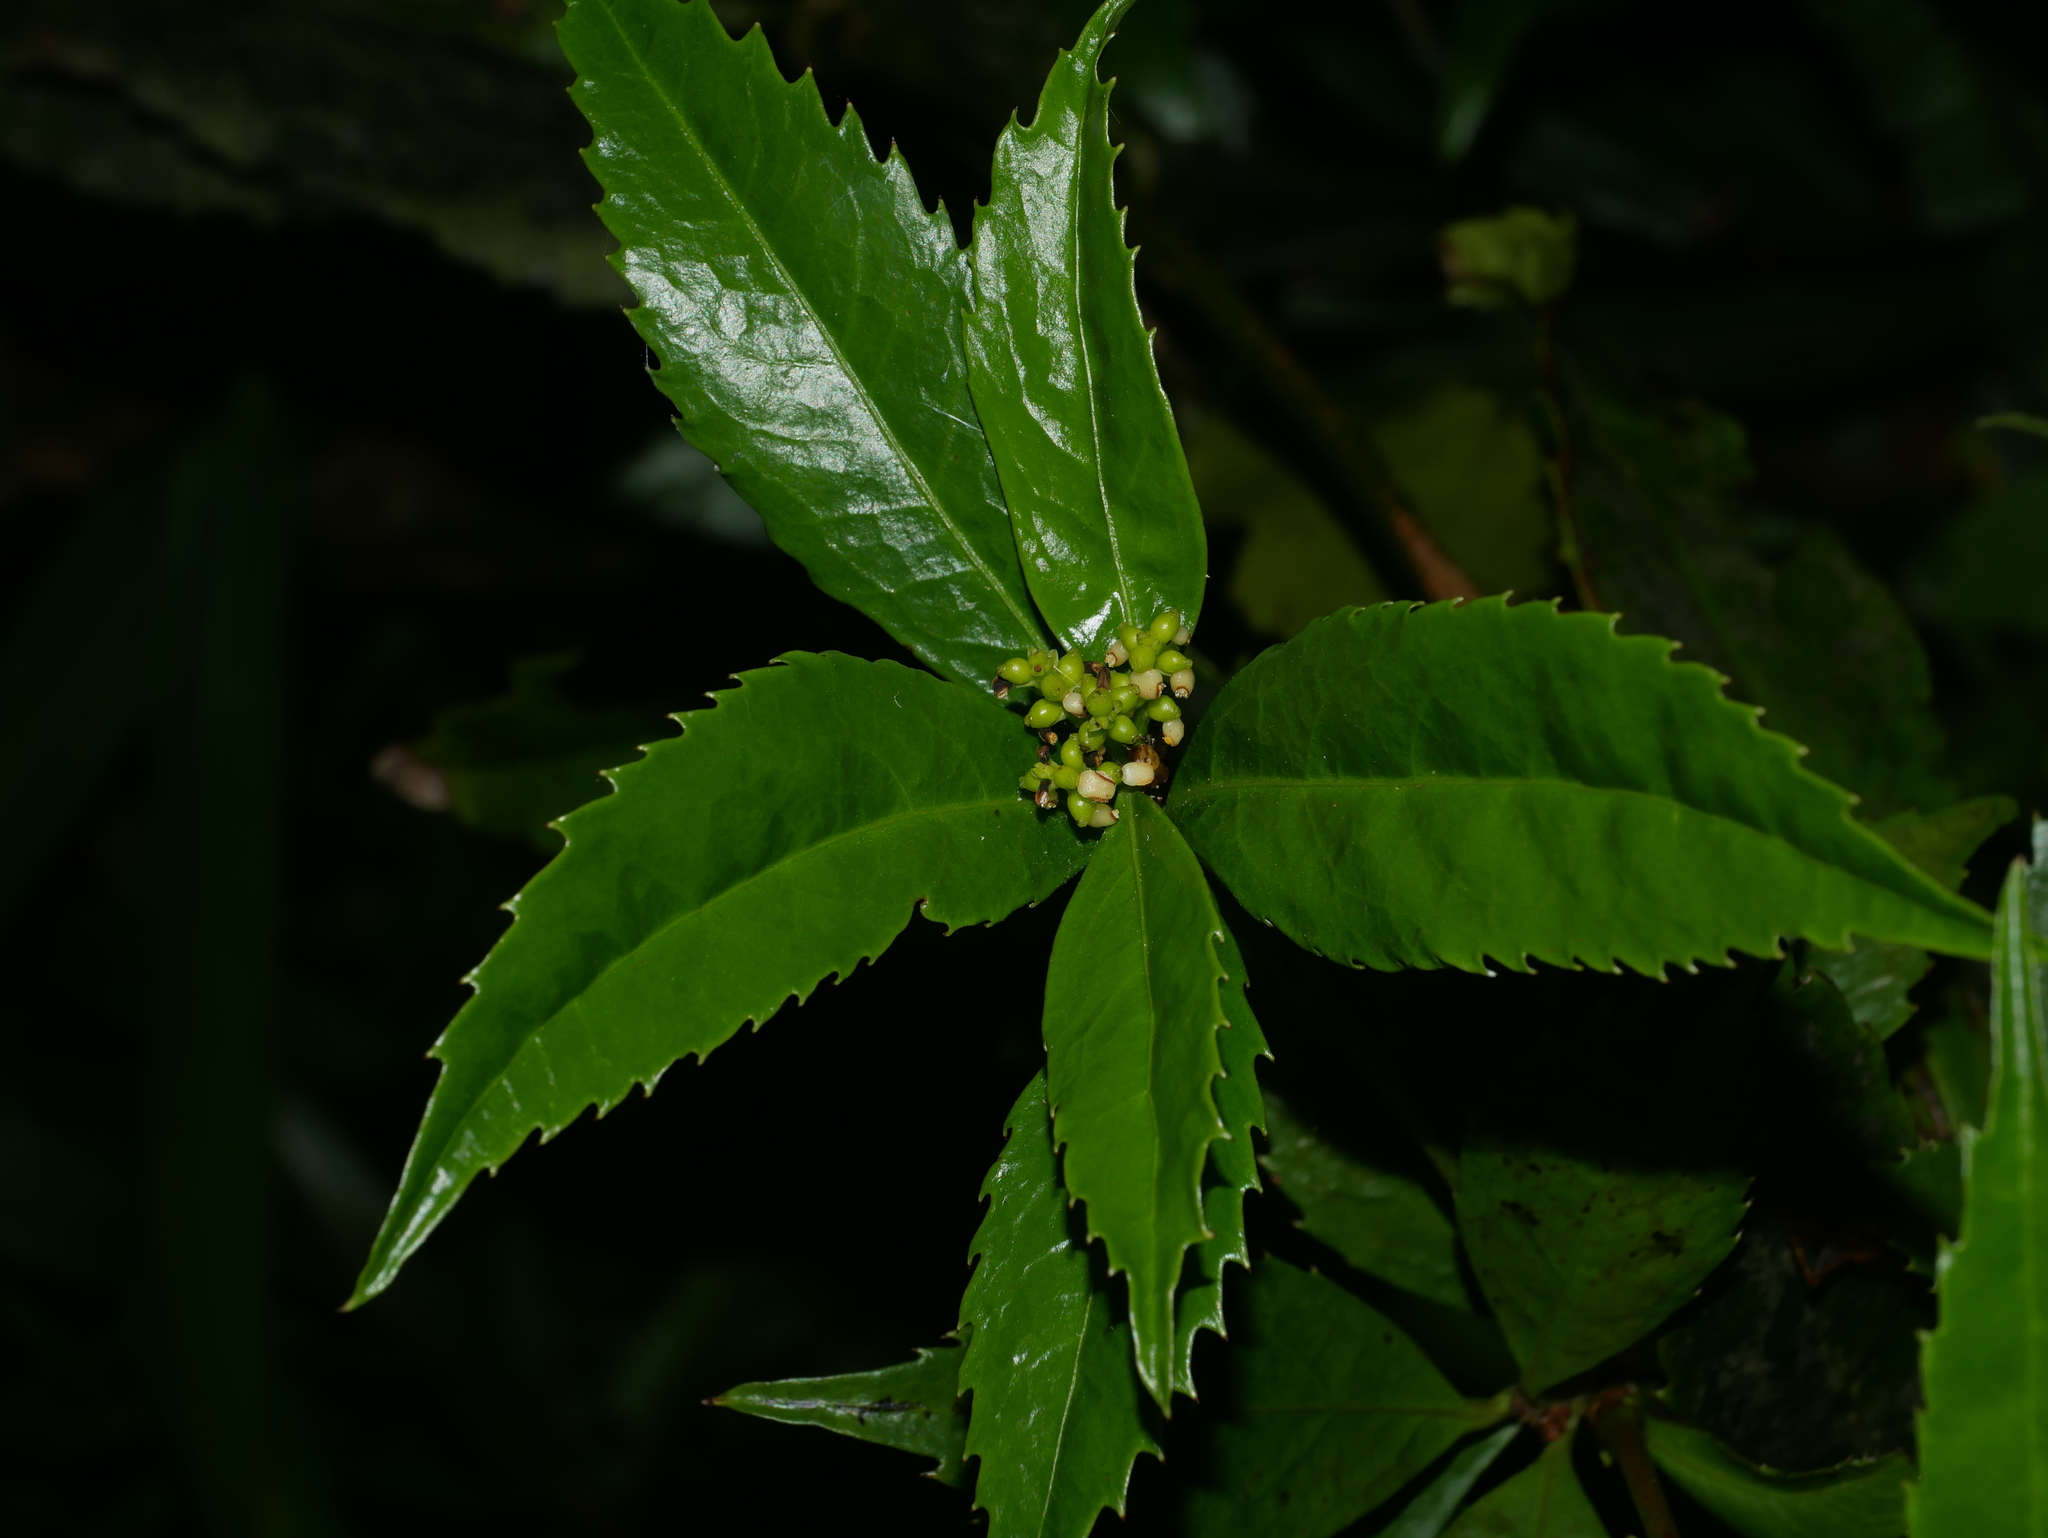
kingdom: Plantae
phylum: Tracheophyta
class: Magnoliopsida
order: Chloranthales
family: Chloranthaceae
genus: Sarcandra
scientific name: Sarcandra glabra
